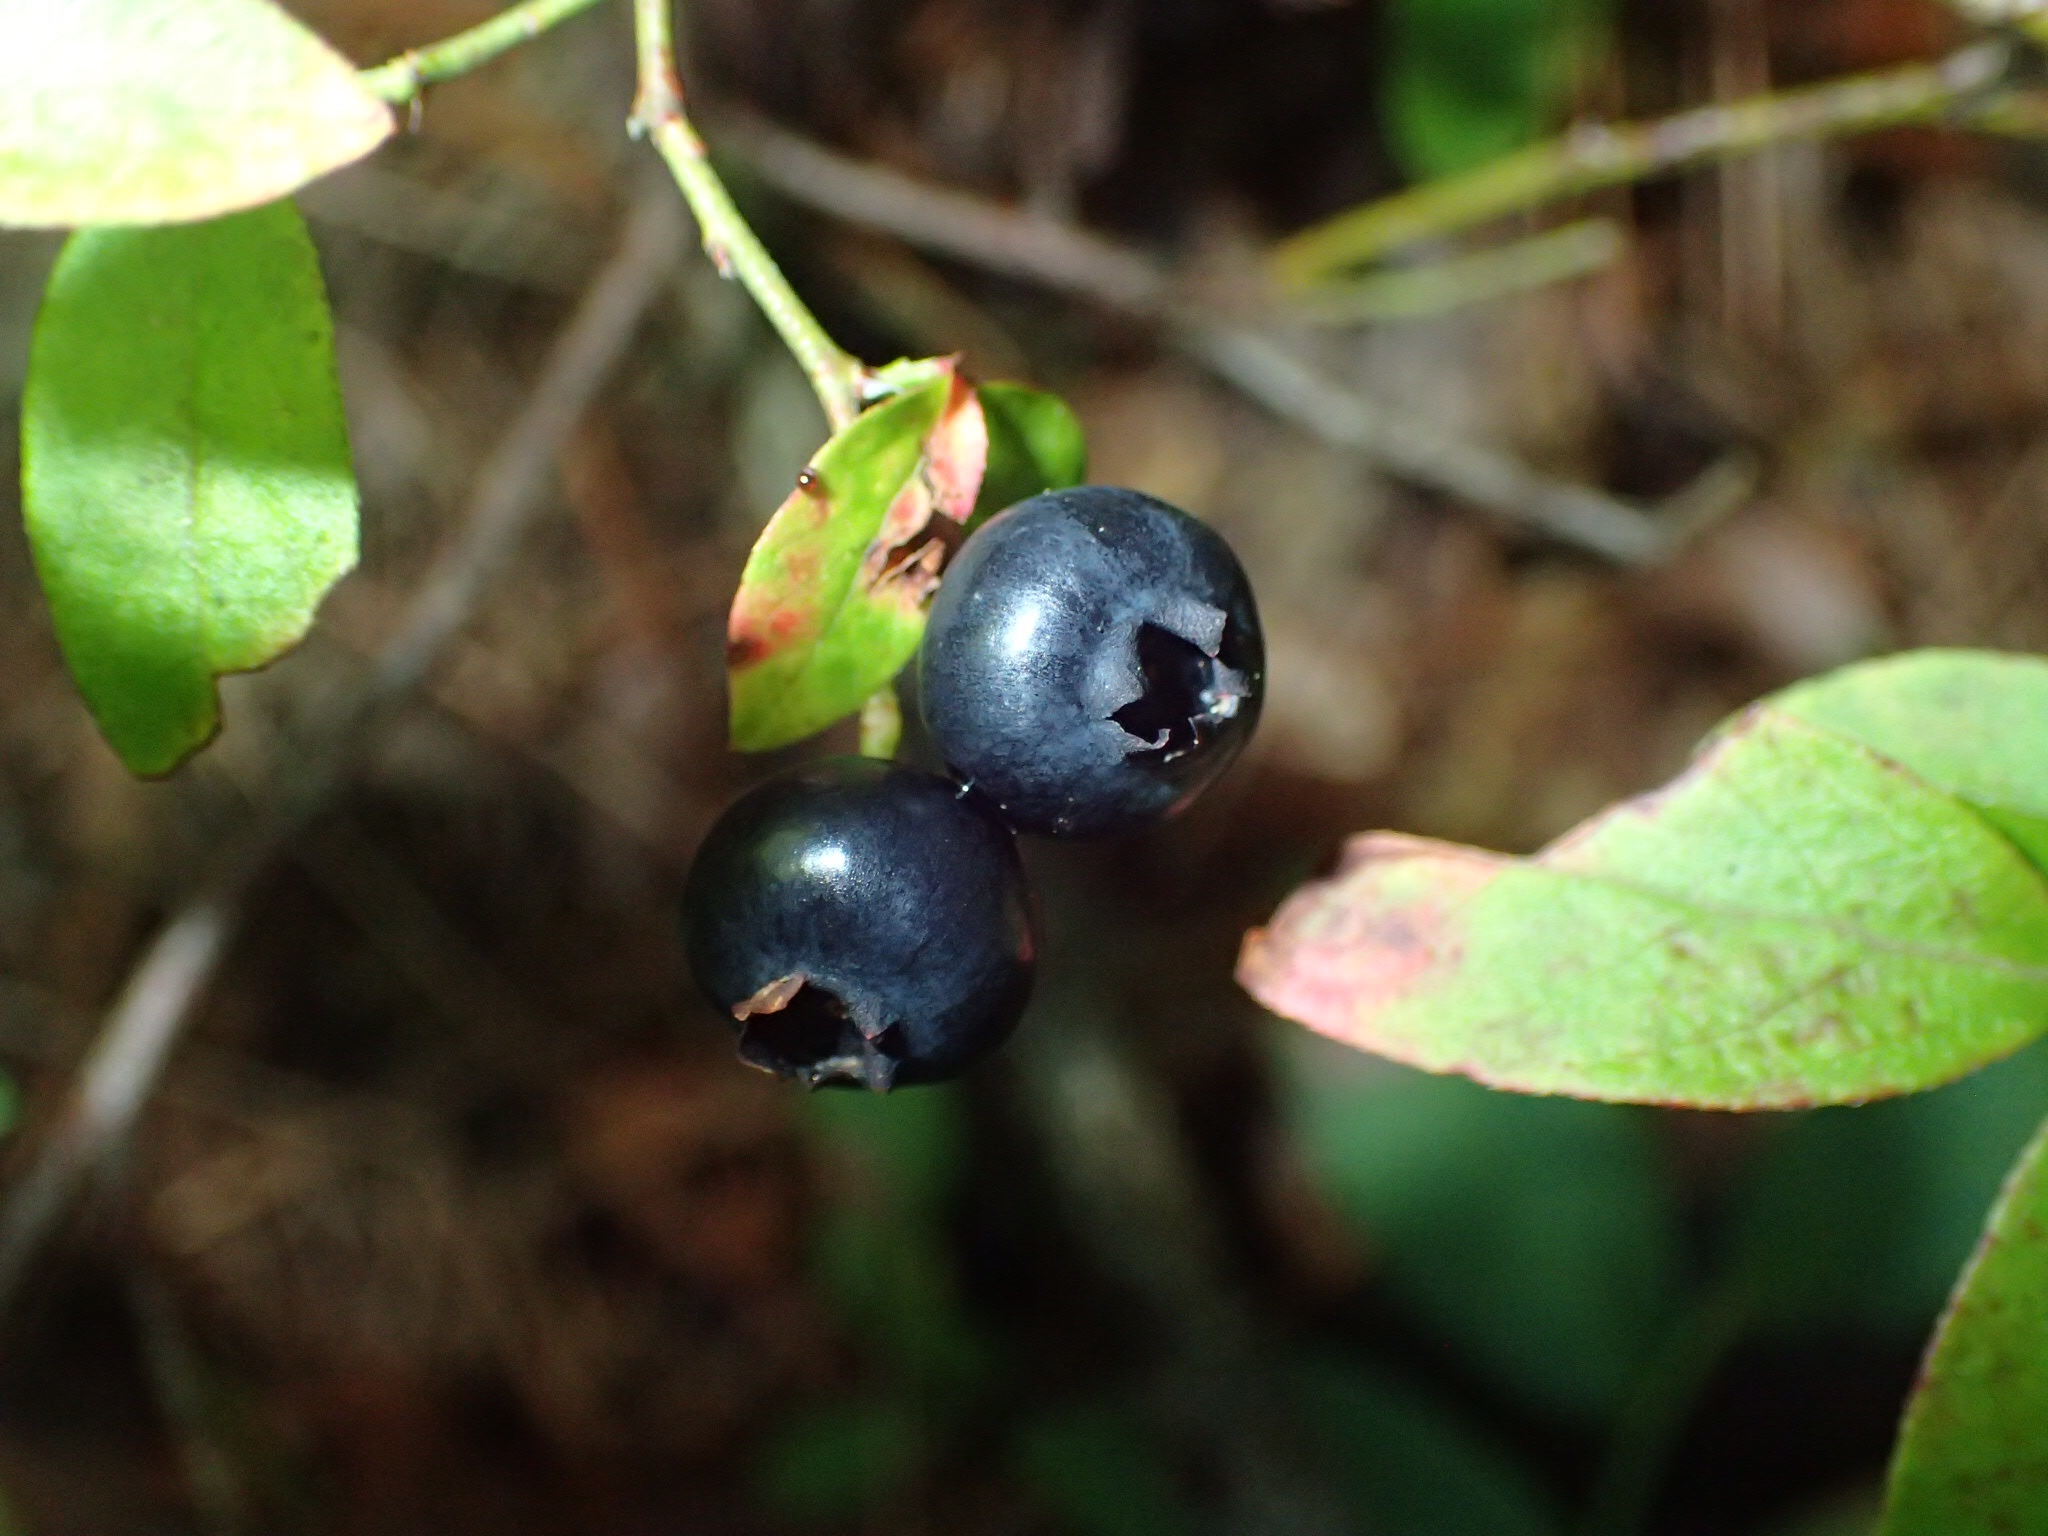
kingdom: Plantae
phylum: Tracheophyta
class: Magnoliopsida
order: Ericales
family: Ericaceae
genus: Vaccinium
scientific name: Vaccinium angustifolium
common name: Early lowbush blueberry
